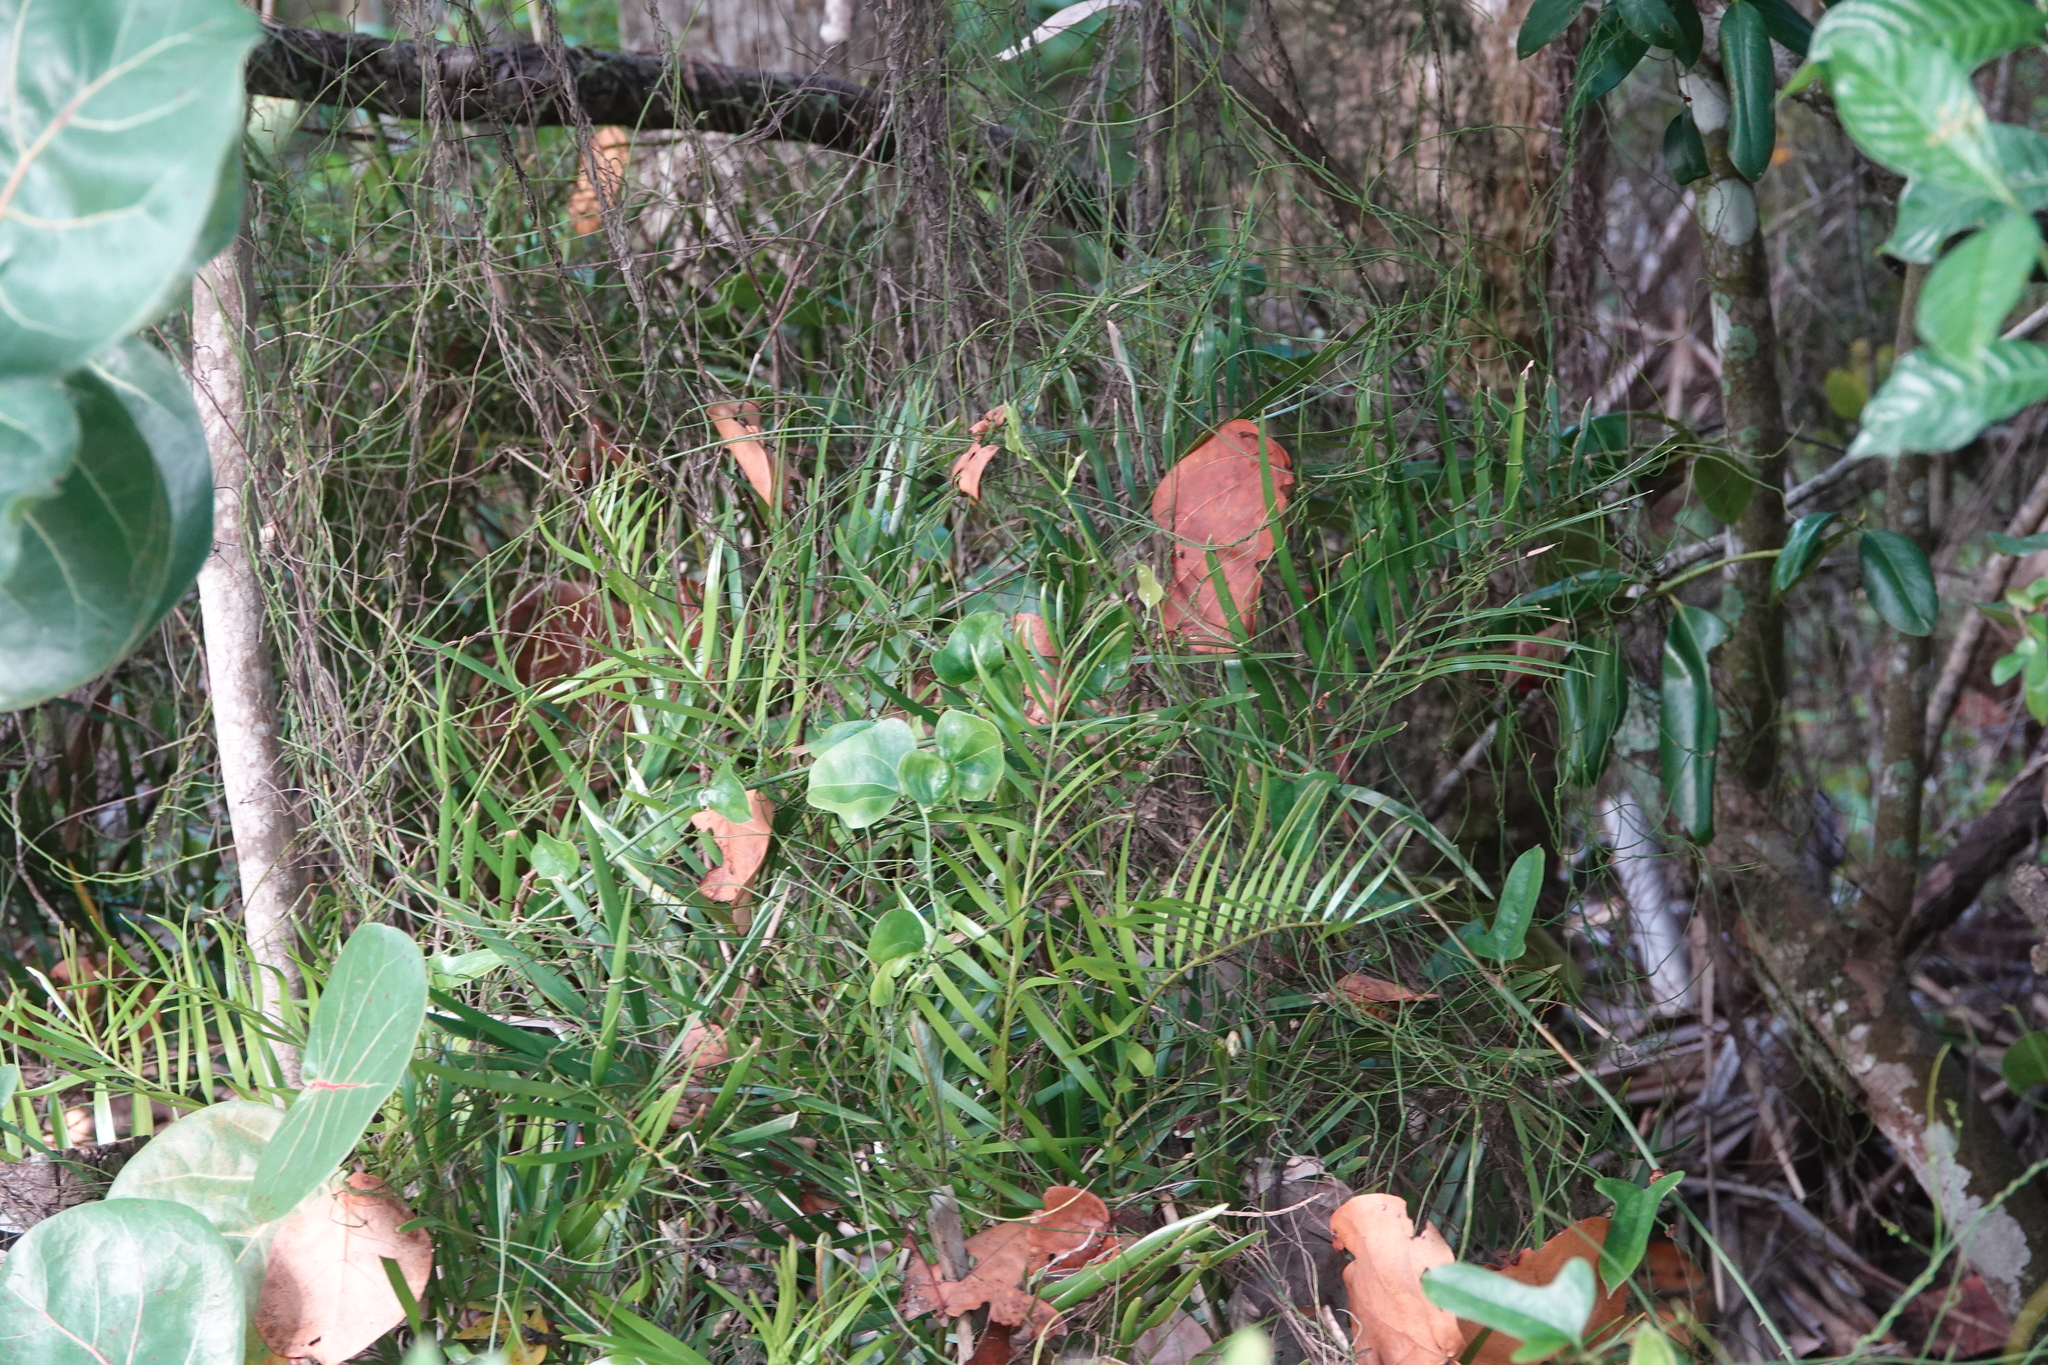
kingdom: Plantae
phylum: Tracheophyta
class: Cycadopsida
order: Cycadales
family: Zamiaceae
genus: Zamia
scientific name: Zamia integrifolia
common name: Florida arrowroot
